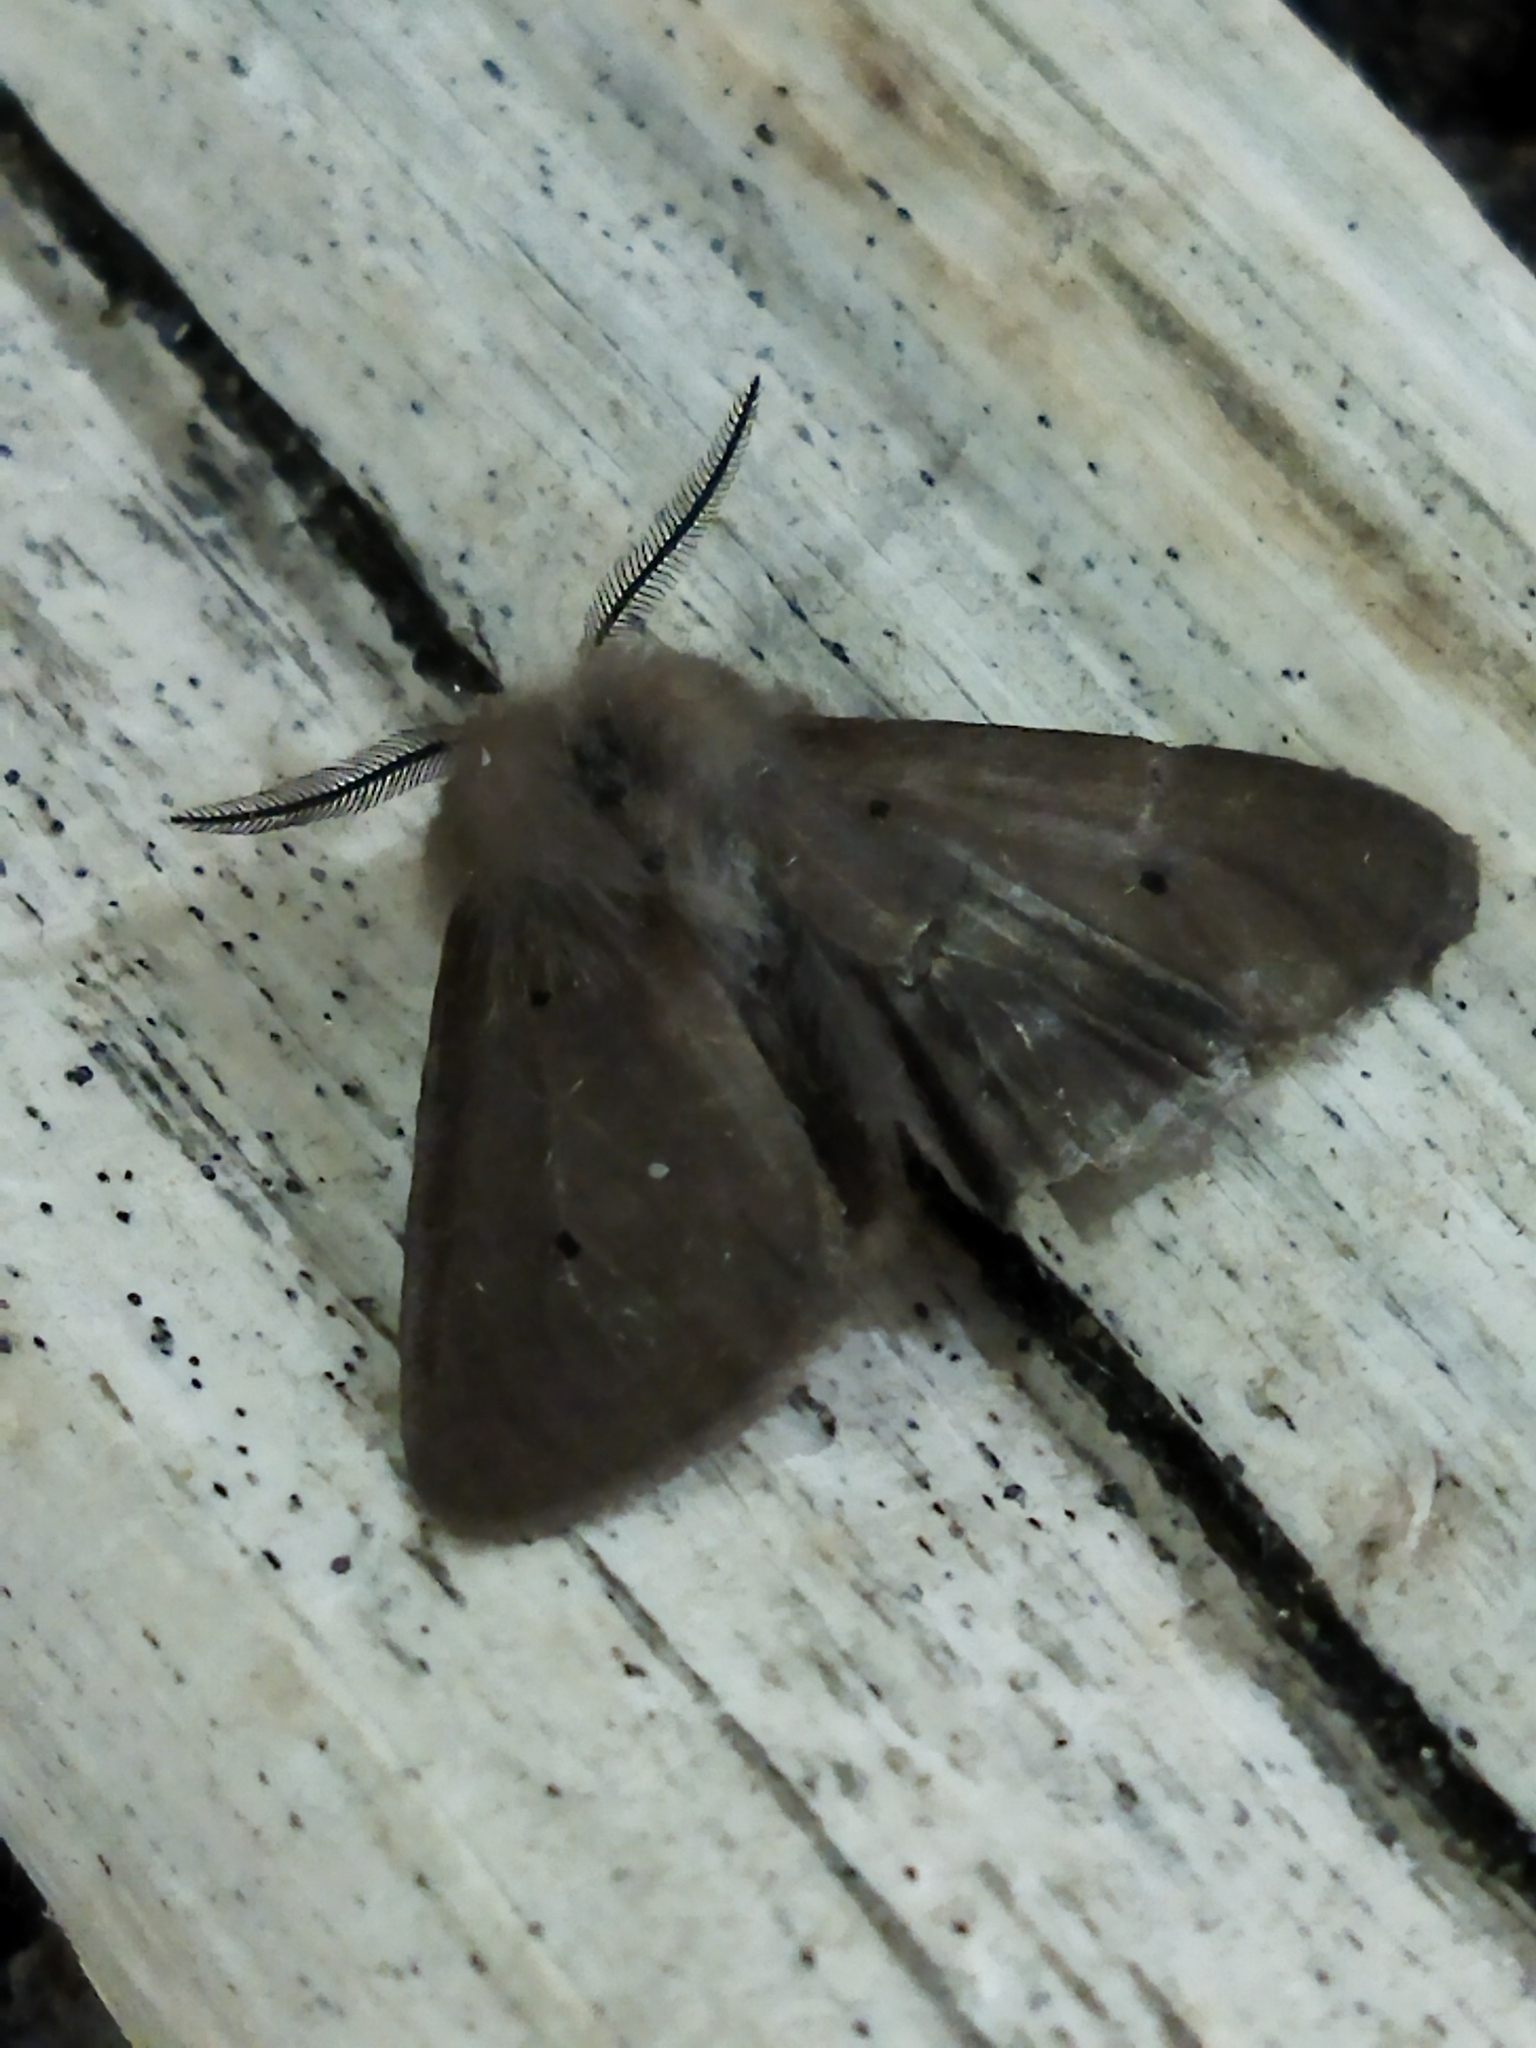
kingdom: Animalia
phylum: Arthropoda
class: Insecta
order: Lepidoptera
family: Erebidae
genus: Diaphora
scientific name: Diaphora mendica
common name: Muslin moth
